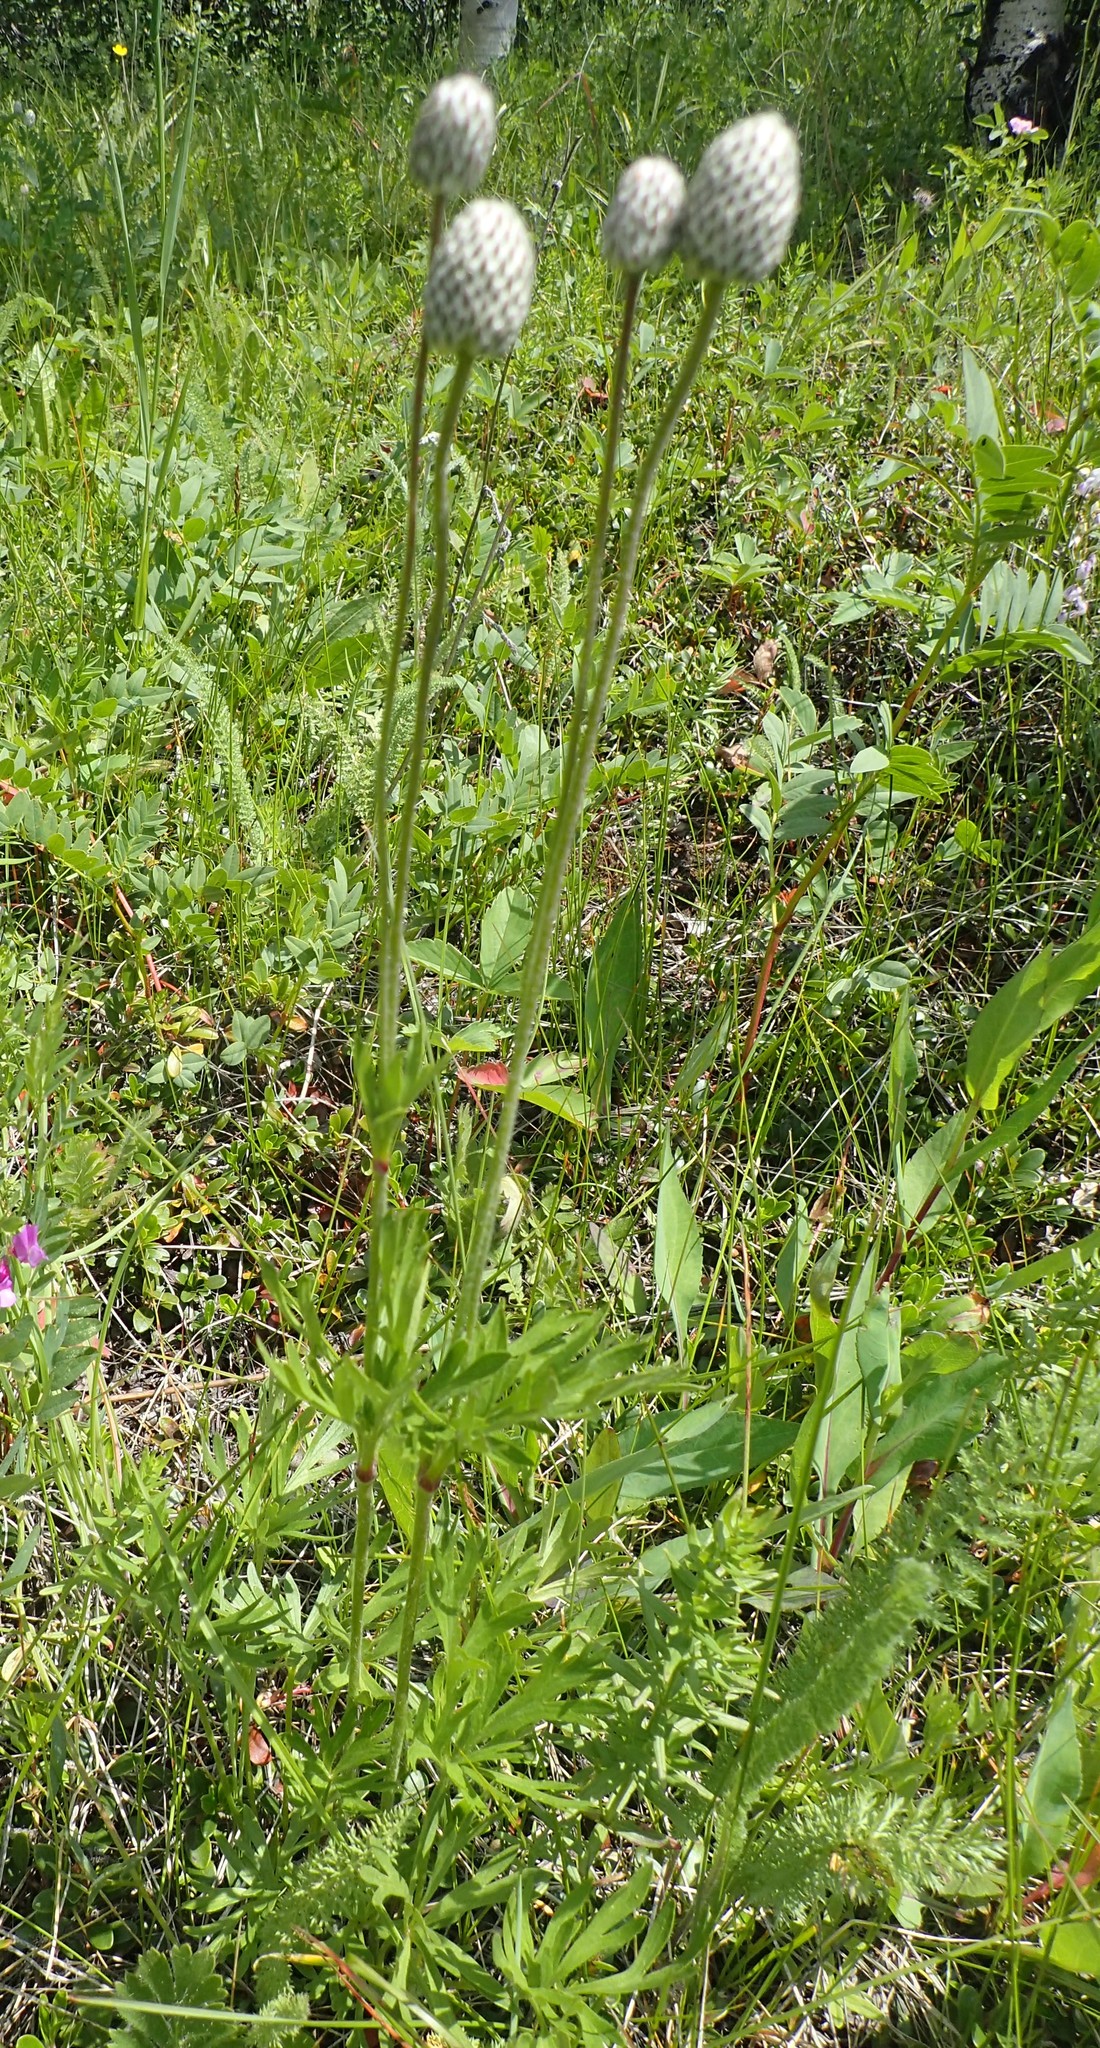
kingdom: Plantae
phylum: Tracheophyta
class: Magnoliopsida
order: Ranunculales
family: Ranunculaceae
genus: Anemone
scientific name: Anemone multifida
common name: Bird's-foot anemone
